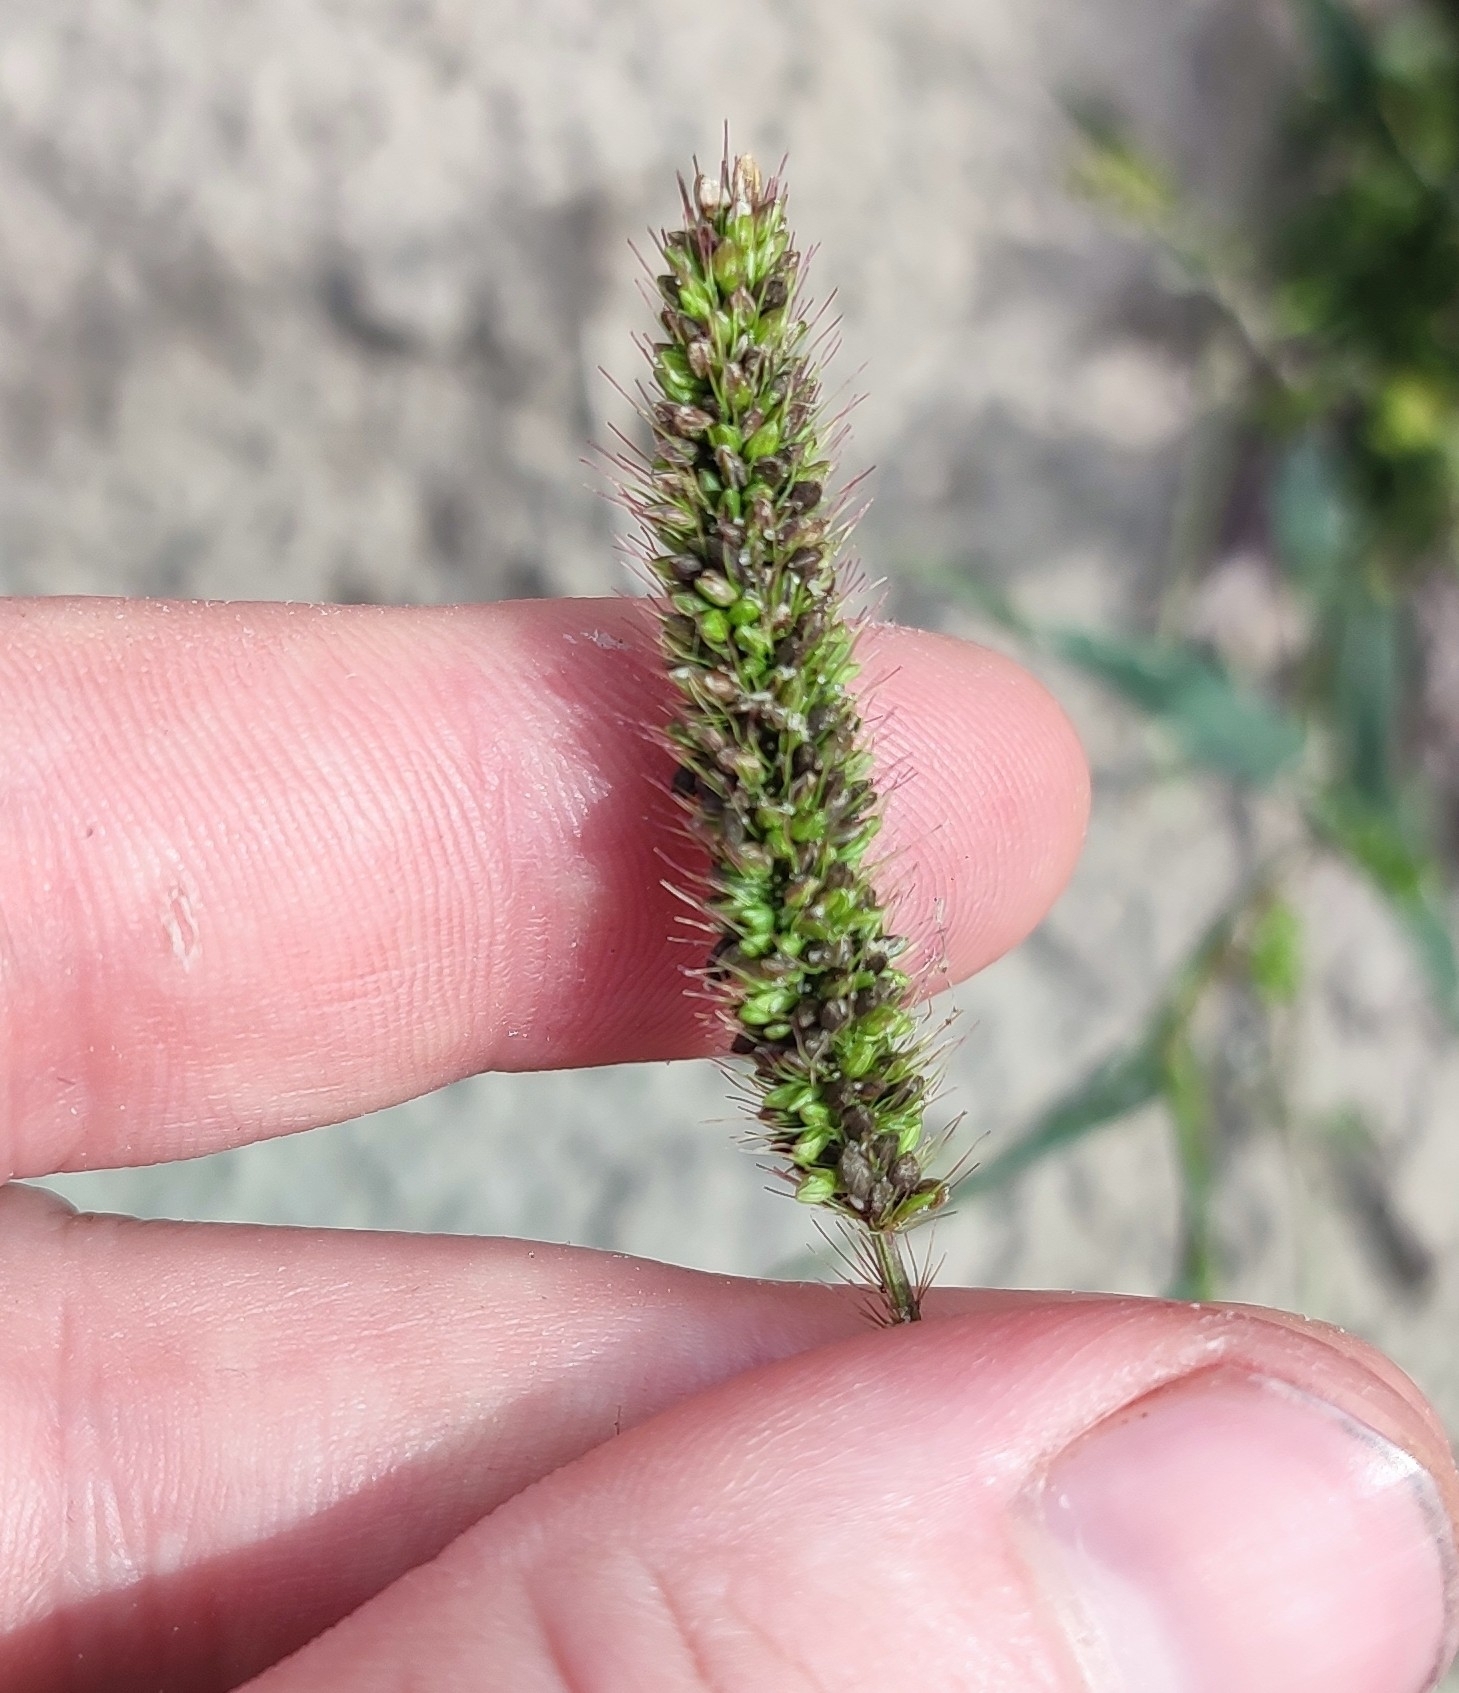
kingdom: Plantae
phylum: Tracheophyta
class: Liliopsida
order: Poales
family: Poaceae
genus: Setaria
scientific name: Setaria viridis
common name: Green bristlegrass
